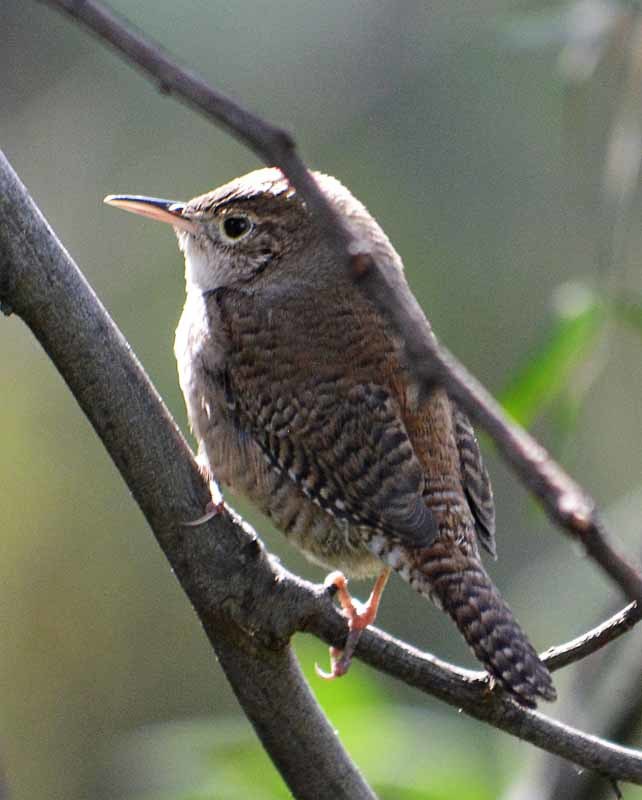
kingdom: Animalia
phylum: Chordata
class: Aves
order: Passeriformes
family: Troglodytidae
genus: Troglodytes
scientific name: Troglodytes aedon
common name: House wren
